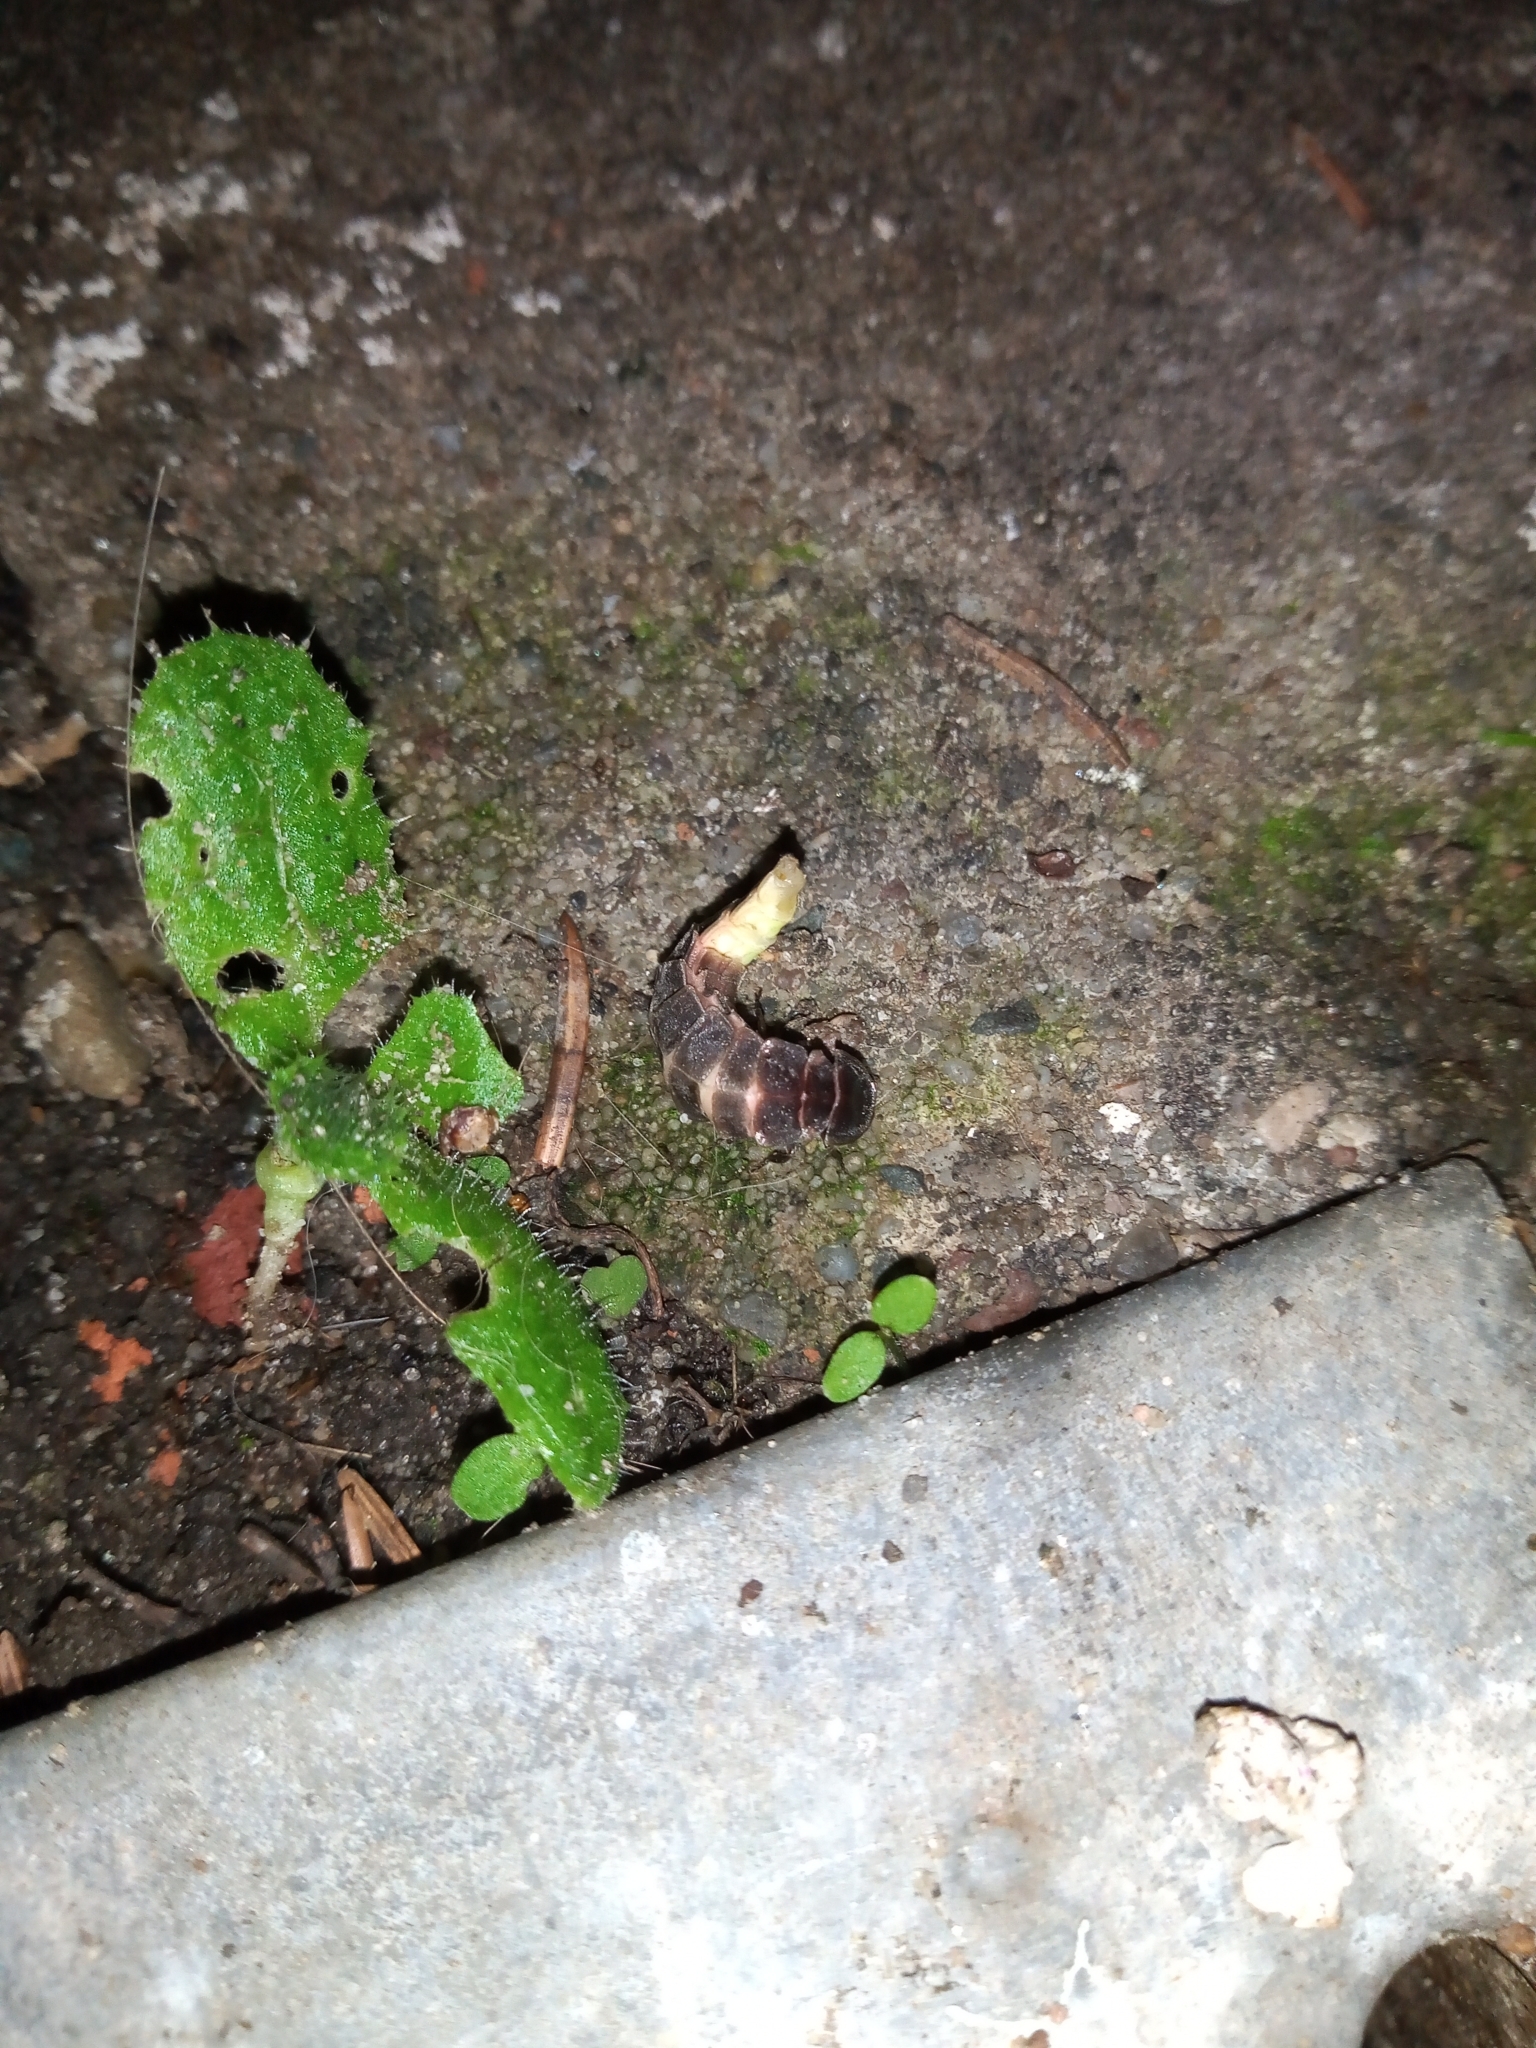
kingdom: Animalia
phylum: Arthropoda
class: Insecta
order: Coleoptera
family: Lampyridae
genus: Lampyris
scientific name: Lampyris noctiluca
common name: Glow-worm
